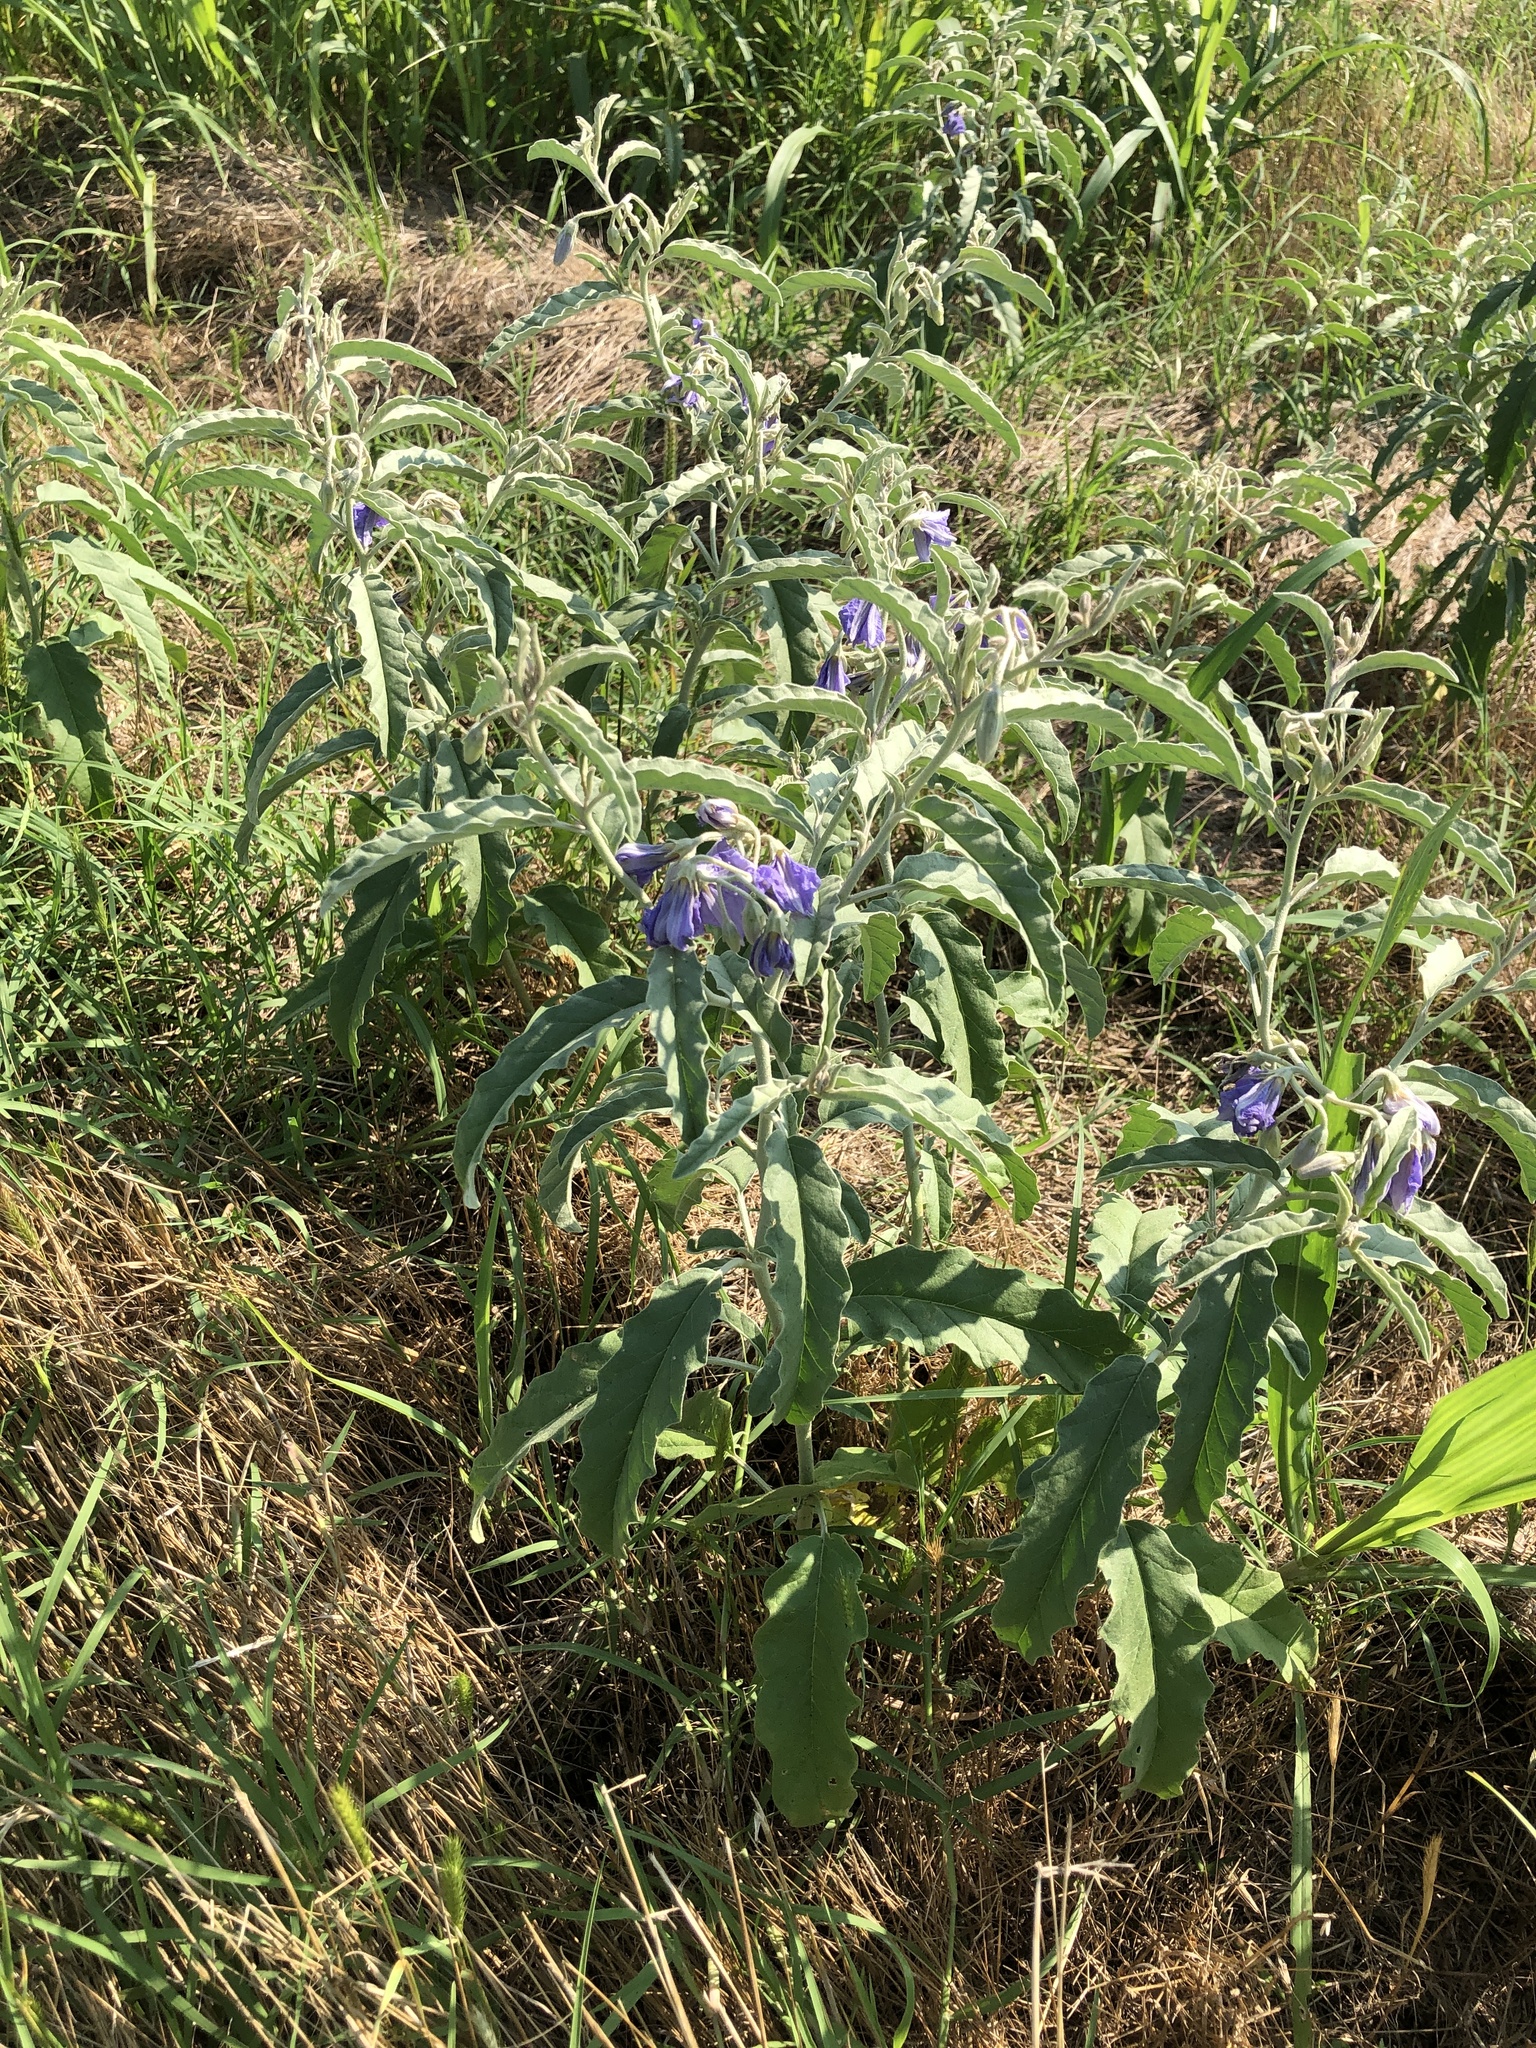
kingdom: Plantae
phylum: Tracheophyta
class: Magnoliopsida
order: Solanales
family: Solanaceae
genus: Solanum
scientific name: Solanum elaeagnifolium
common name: Silverleaf nightshade
